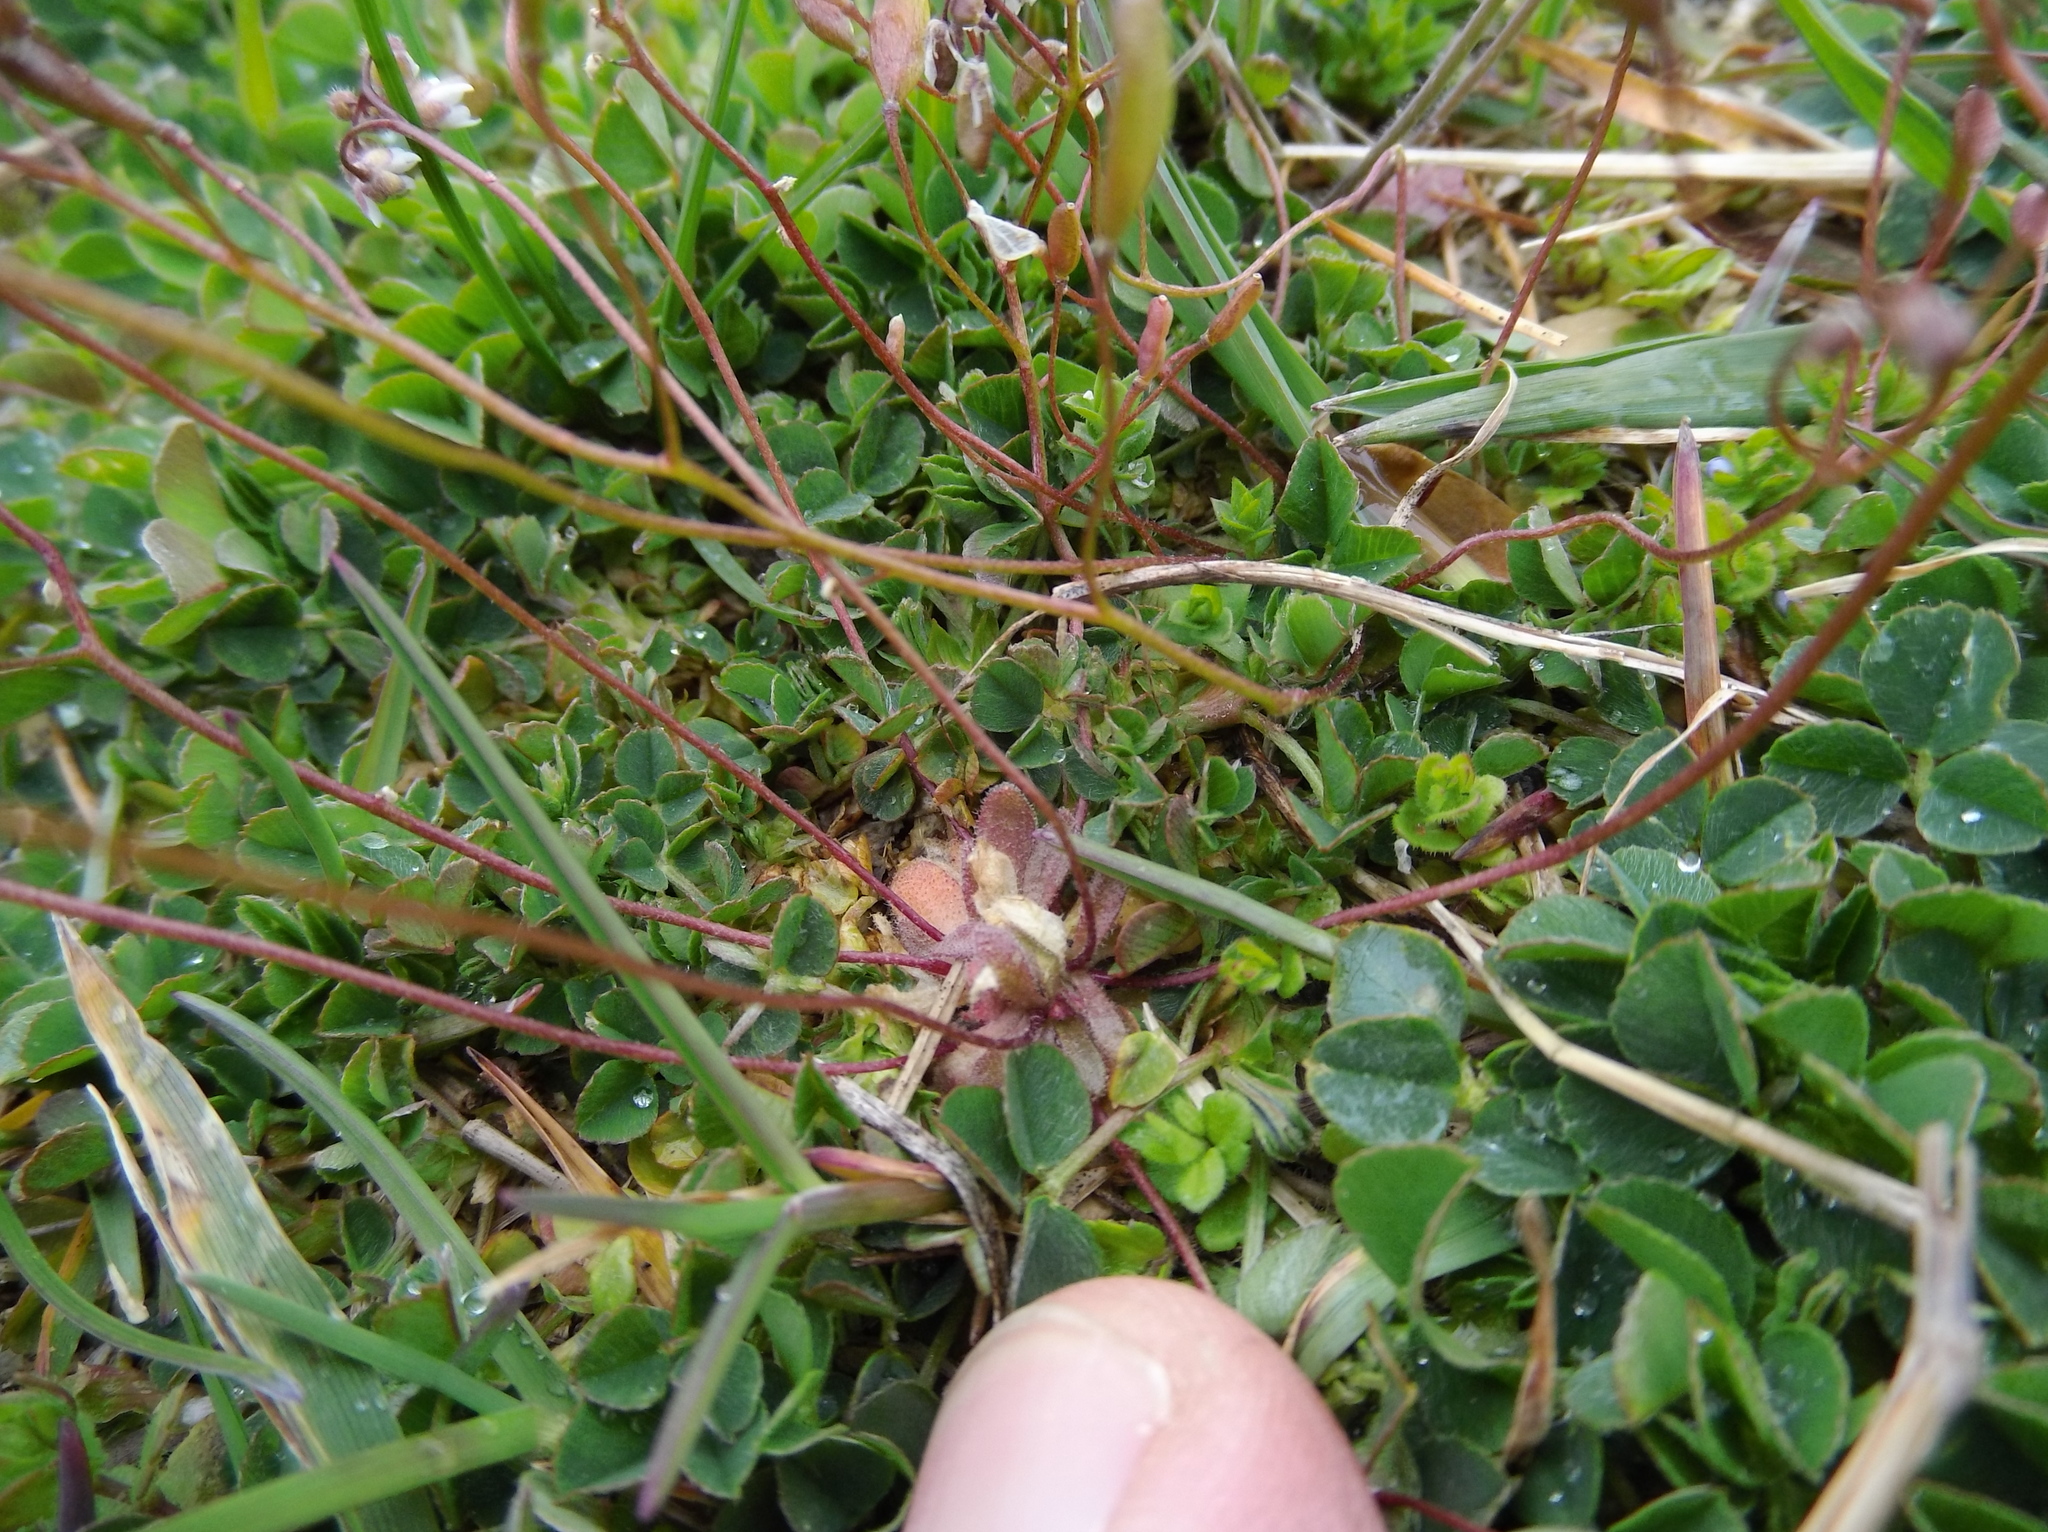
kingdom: Plantae
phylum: Tracheophyta
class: Magnoliopsida
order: Brassicales
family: Brassicaceae
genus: Draba
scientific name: Draba verna
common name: Spring draba
